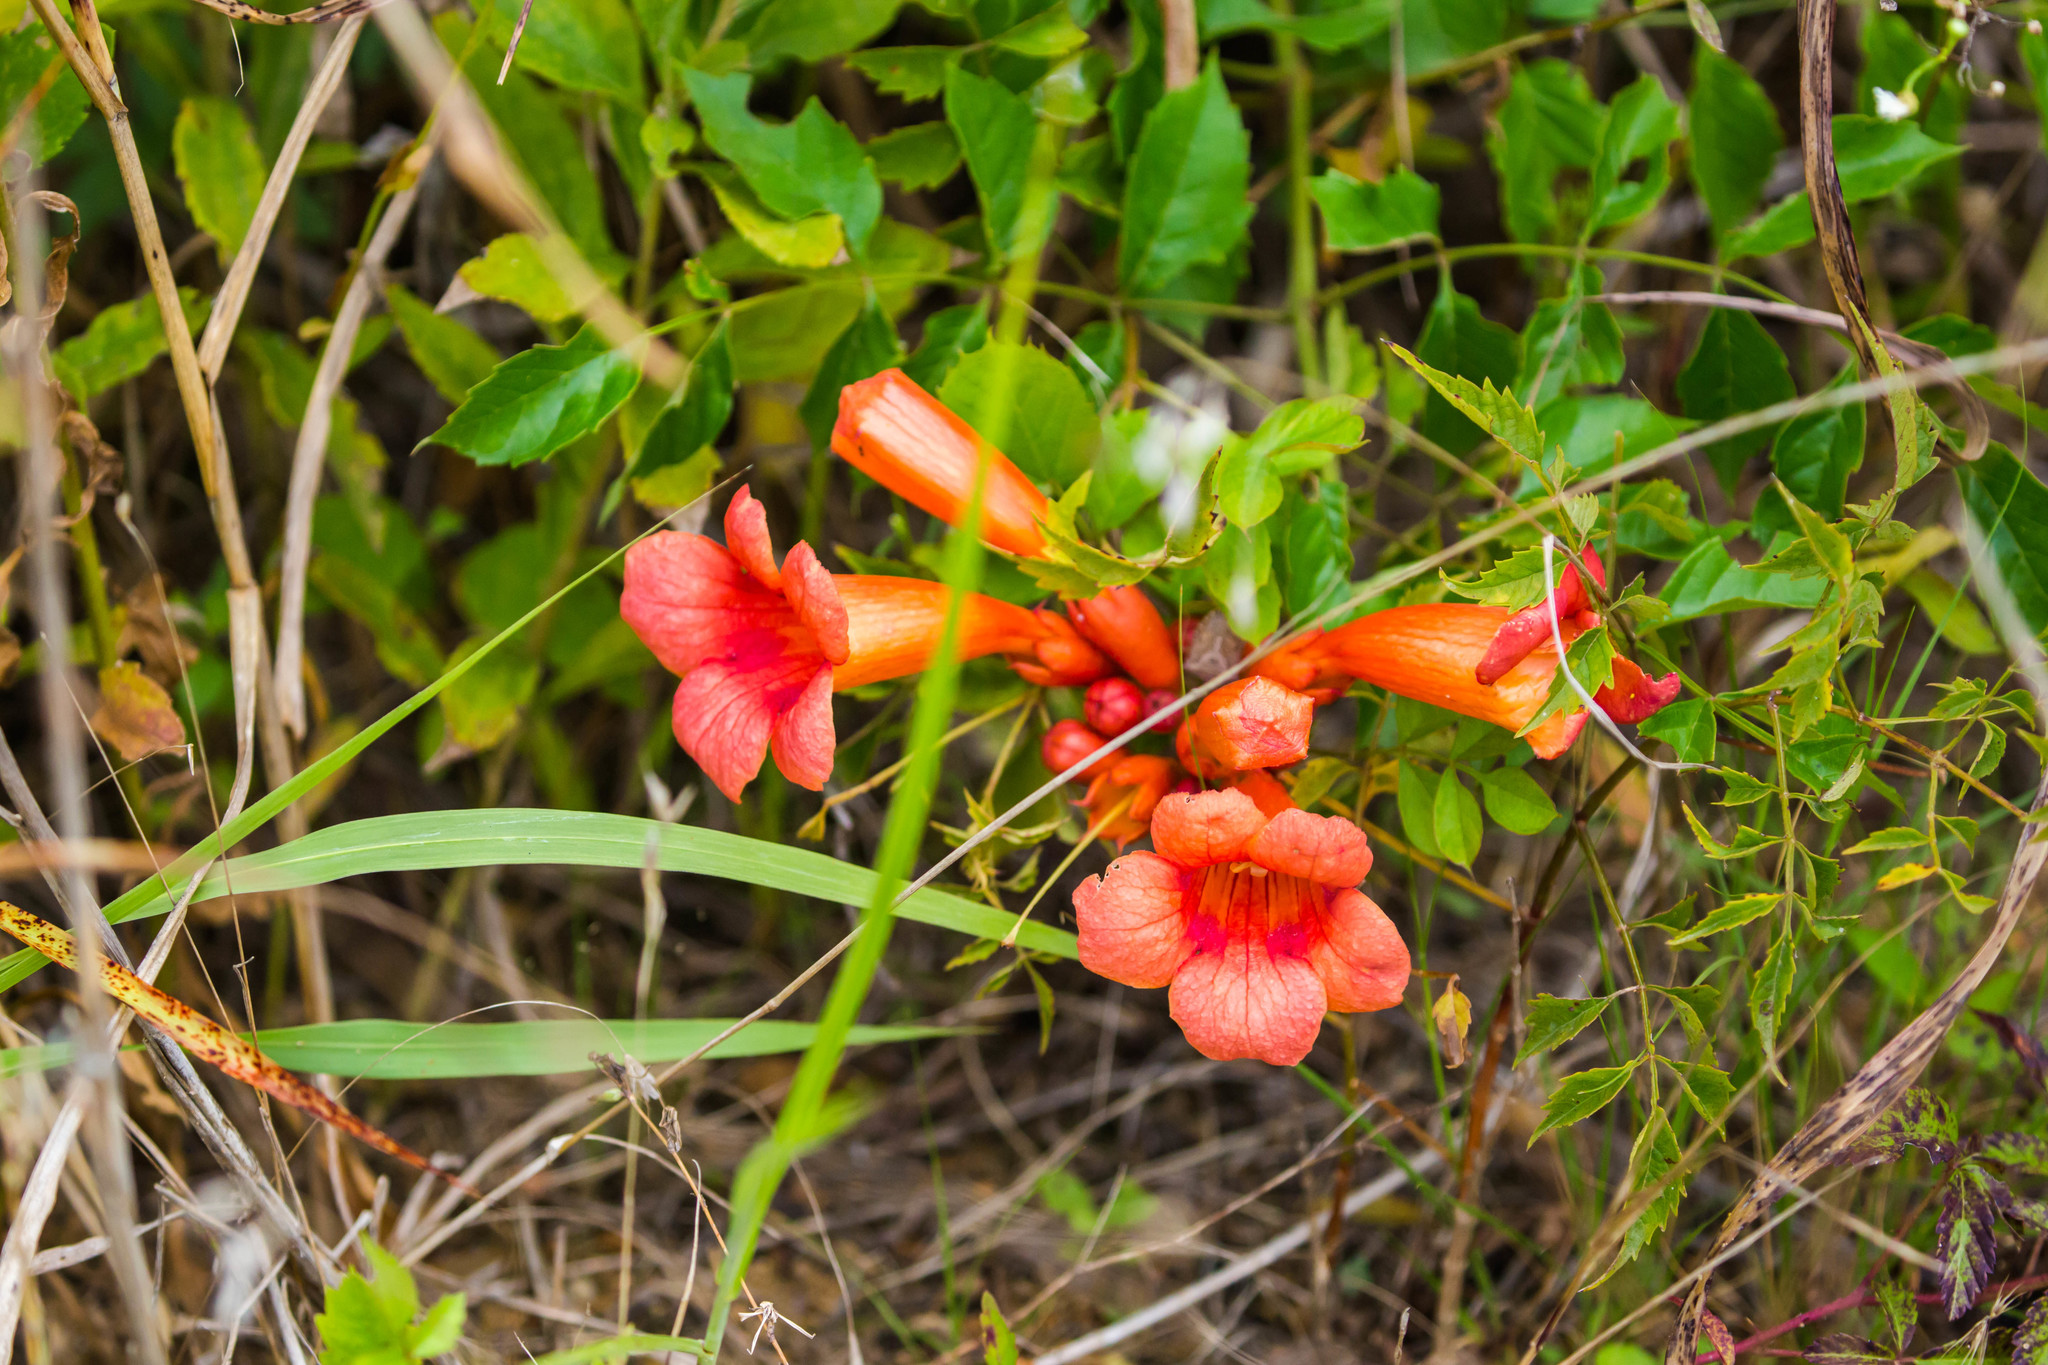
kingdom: Plantae
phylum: Tracheophyta
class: Magnoliopsida
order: Lamiales
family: Bignoniaceae
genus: Campsis
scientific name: Campsis radicans
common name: Trumpet-creeper
